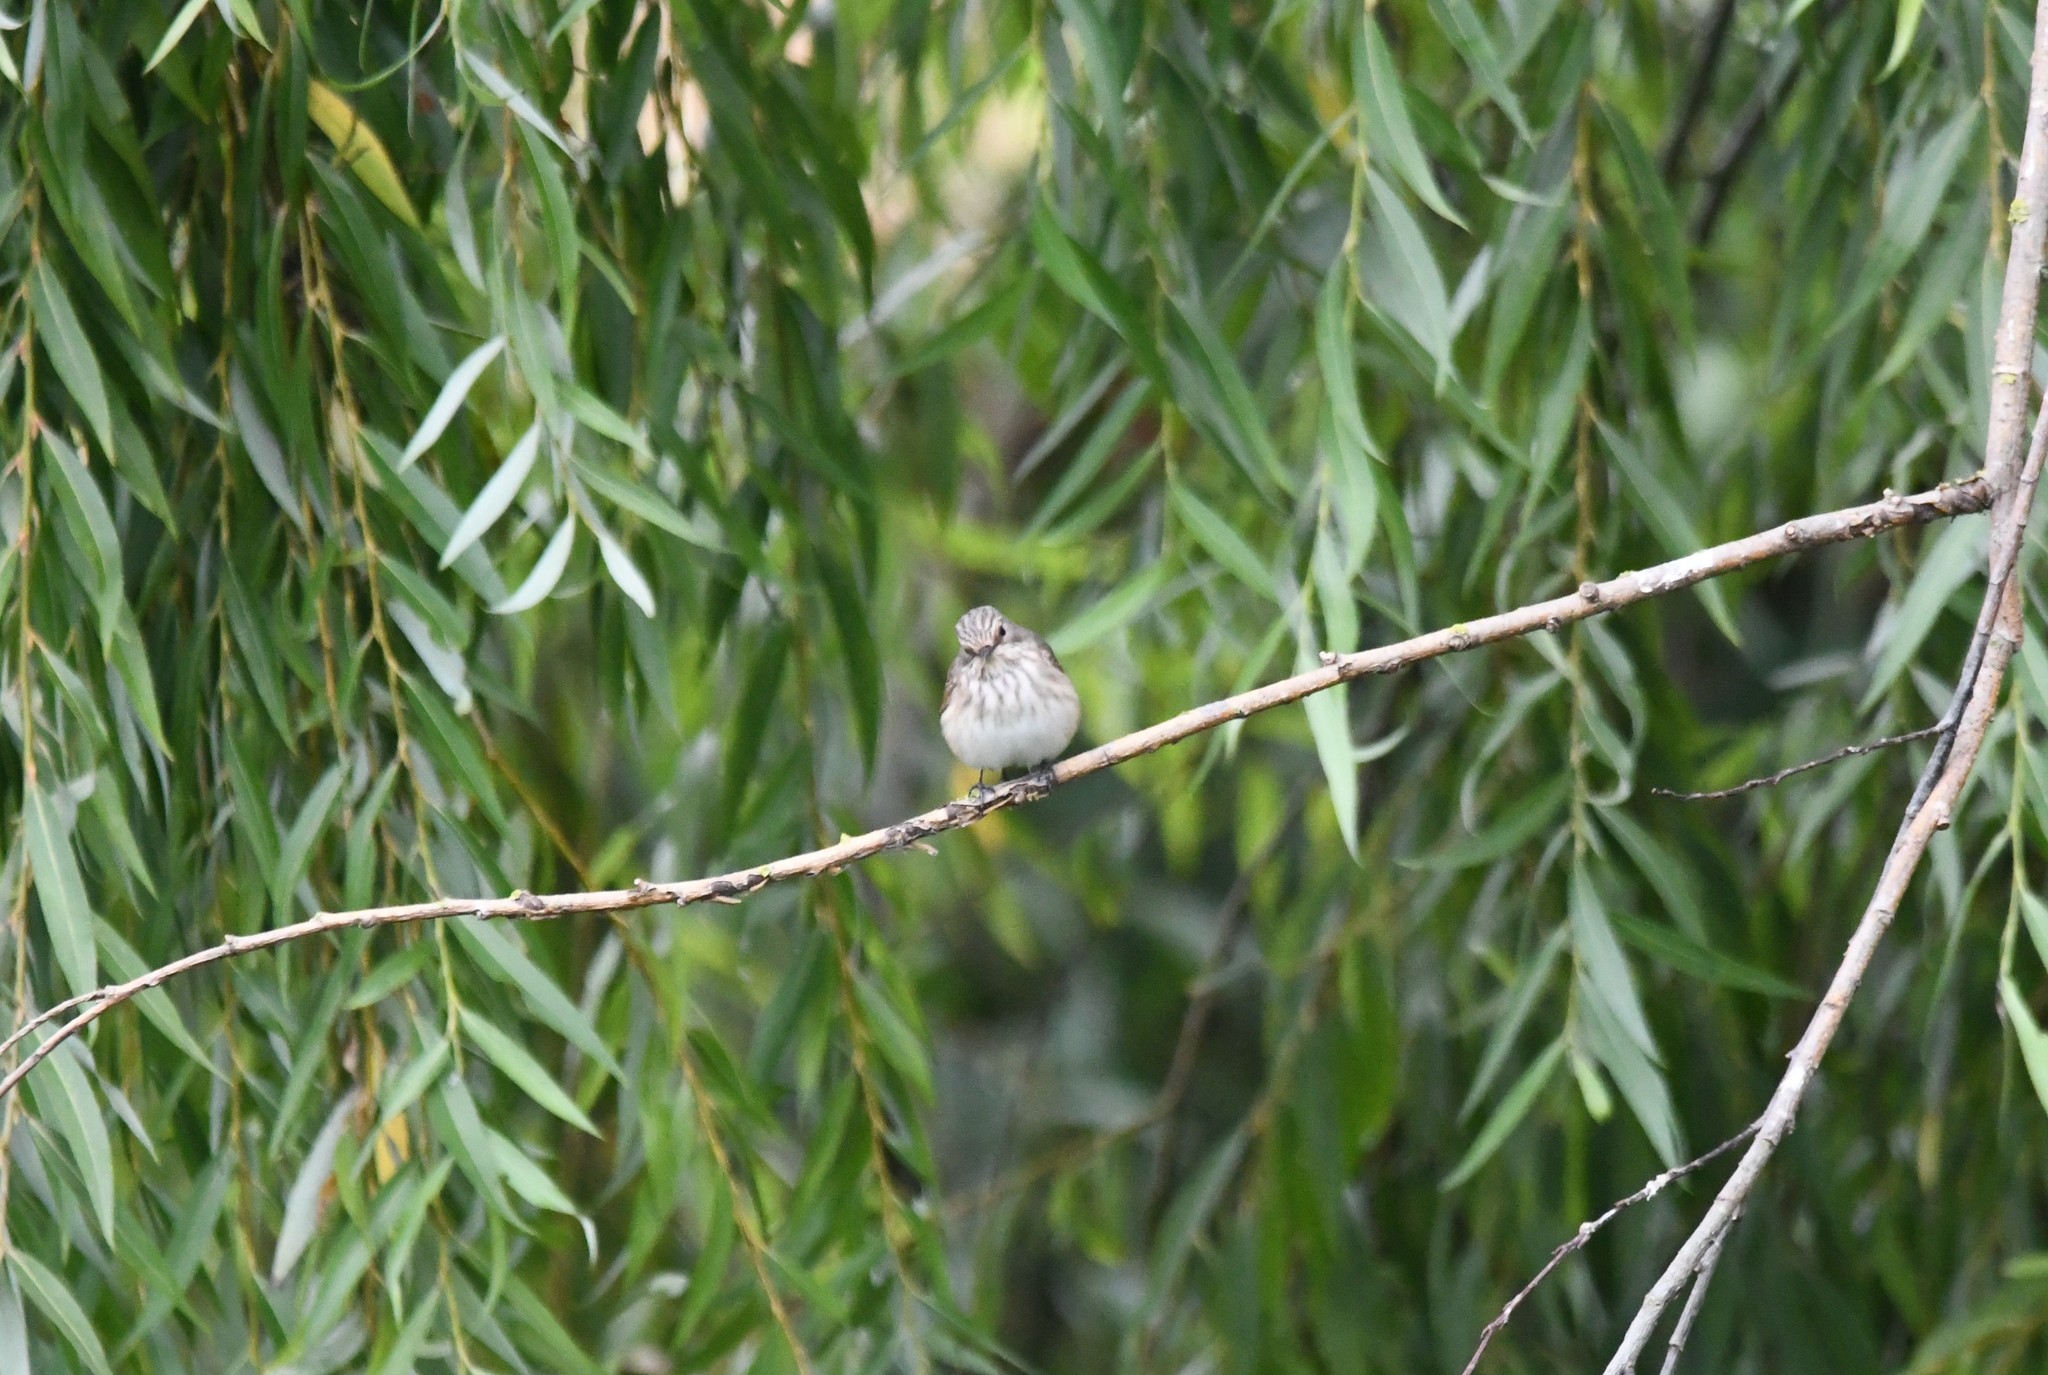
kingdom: Animalia
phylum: Chordata
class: Aves
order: Passeriformes
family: Muscicapidae
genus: Muscicapa
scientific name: Muscicapa striata
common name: Spotted flycatcher
